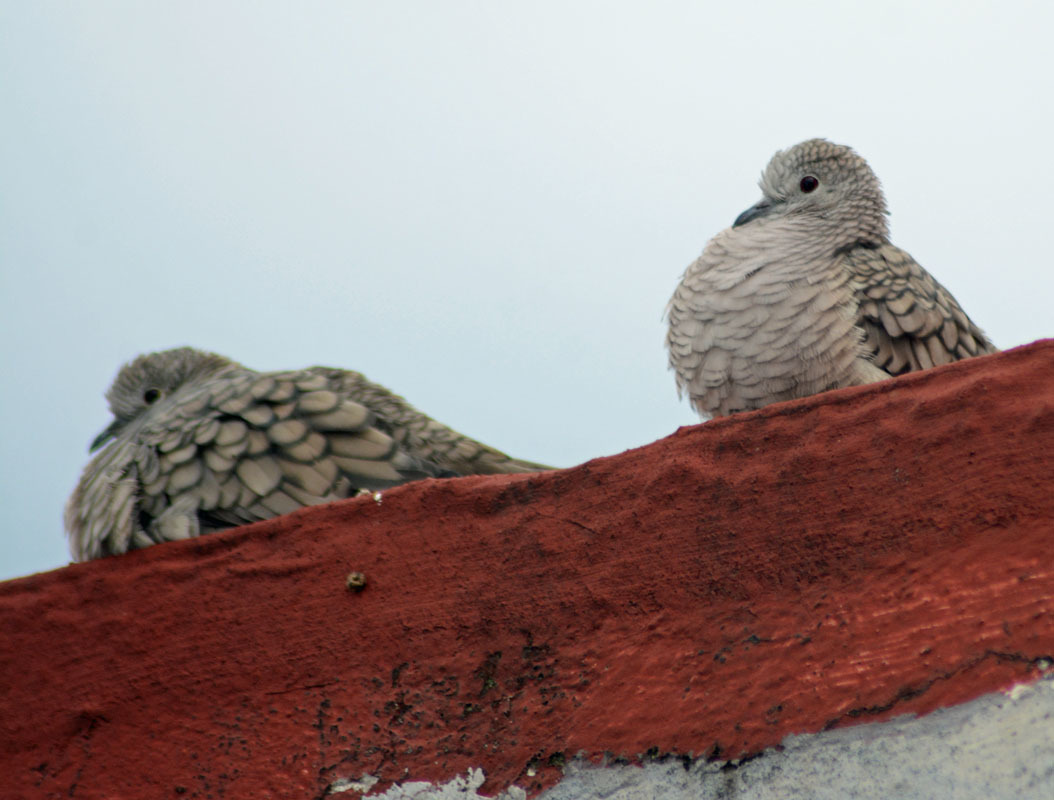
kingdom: Animalia
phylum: Chordata
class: Aves
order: Columbiformes
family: Columbidae
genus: Columbina
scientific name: Columbina inca
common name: Inca dove
